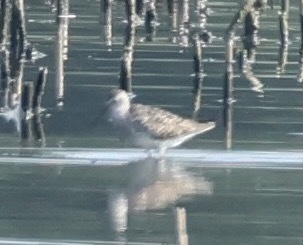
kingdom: Animalia
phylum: Chordata
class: Aves
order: Charadriiformes
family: Scolopacidae
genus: Calidris
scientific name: Calidris himantopus
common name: Stilt sandpiper
